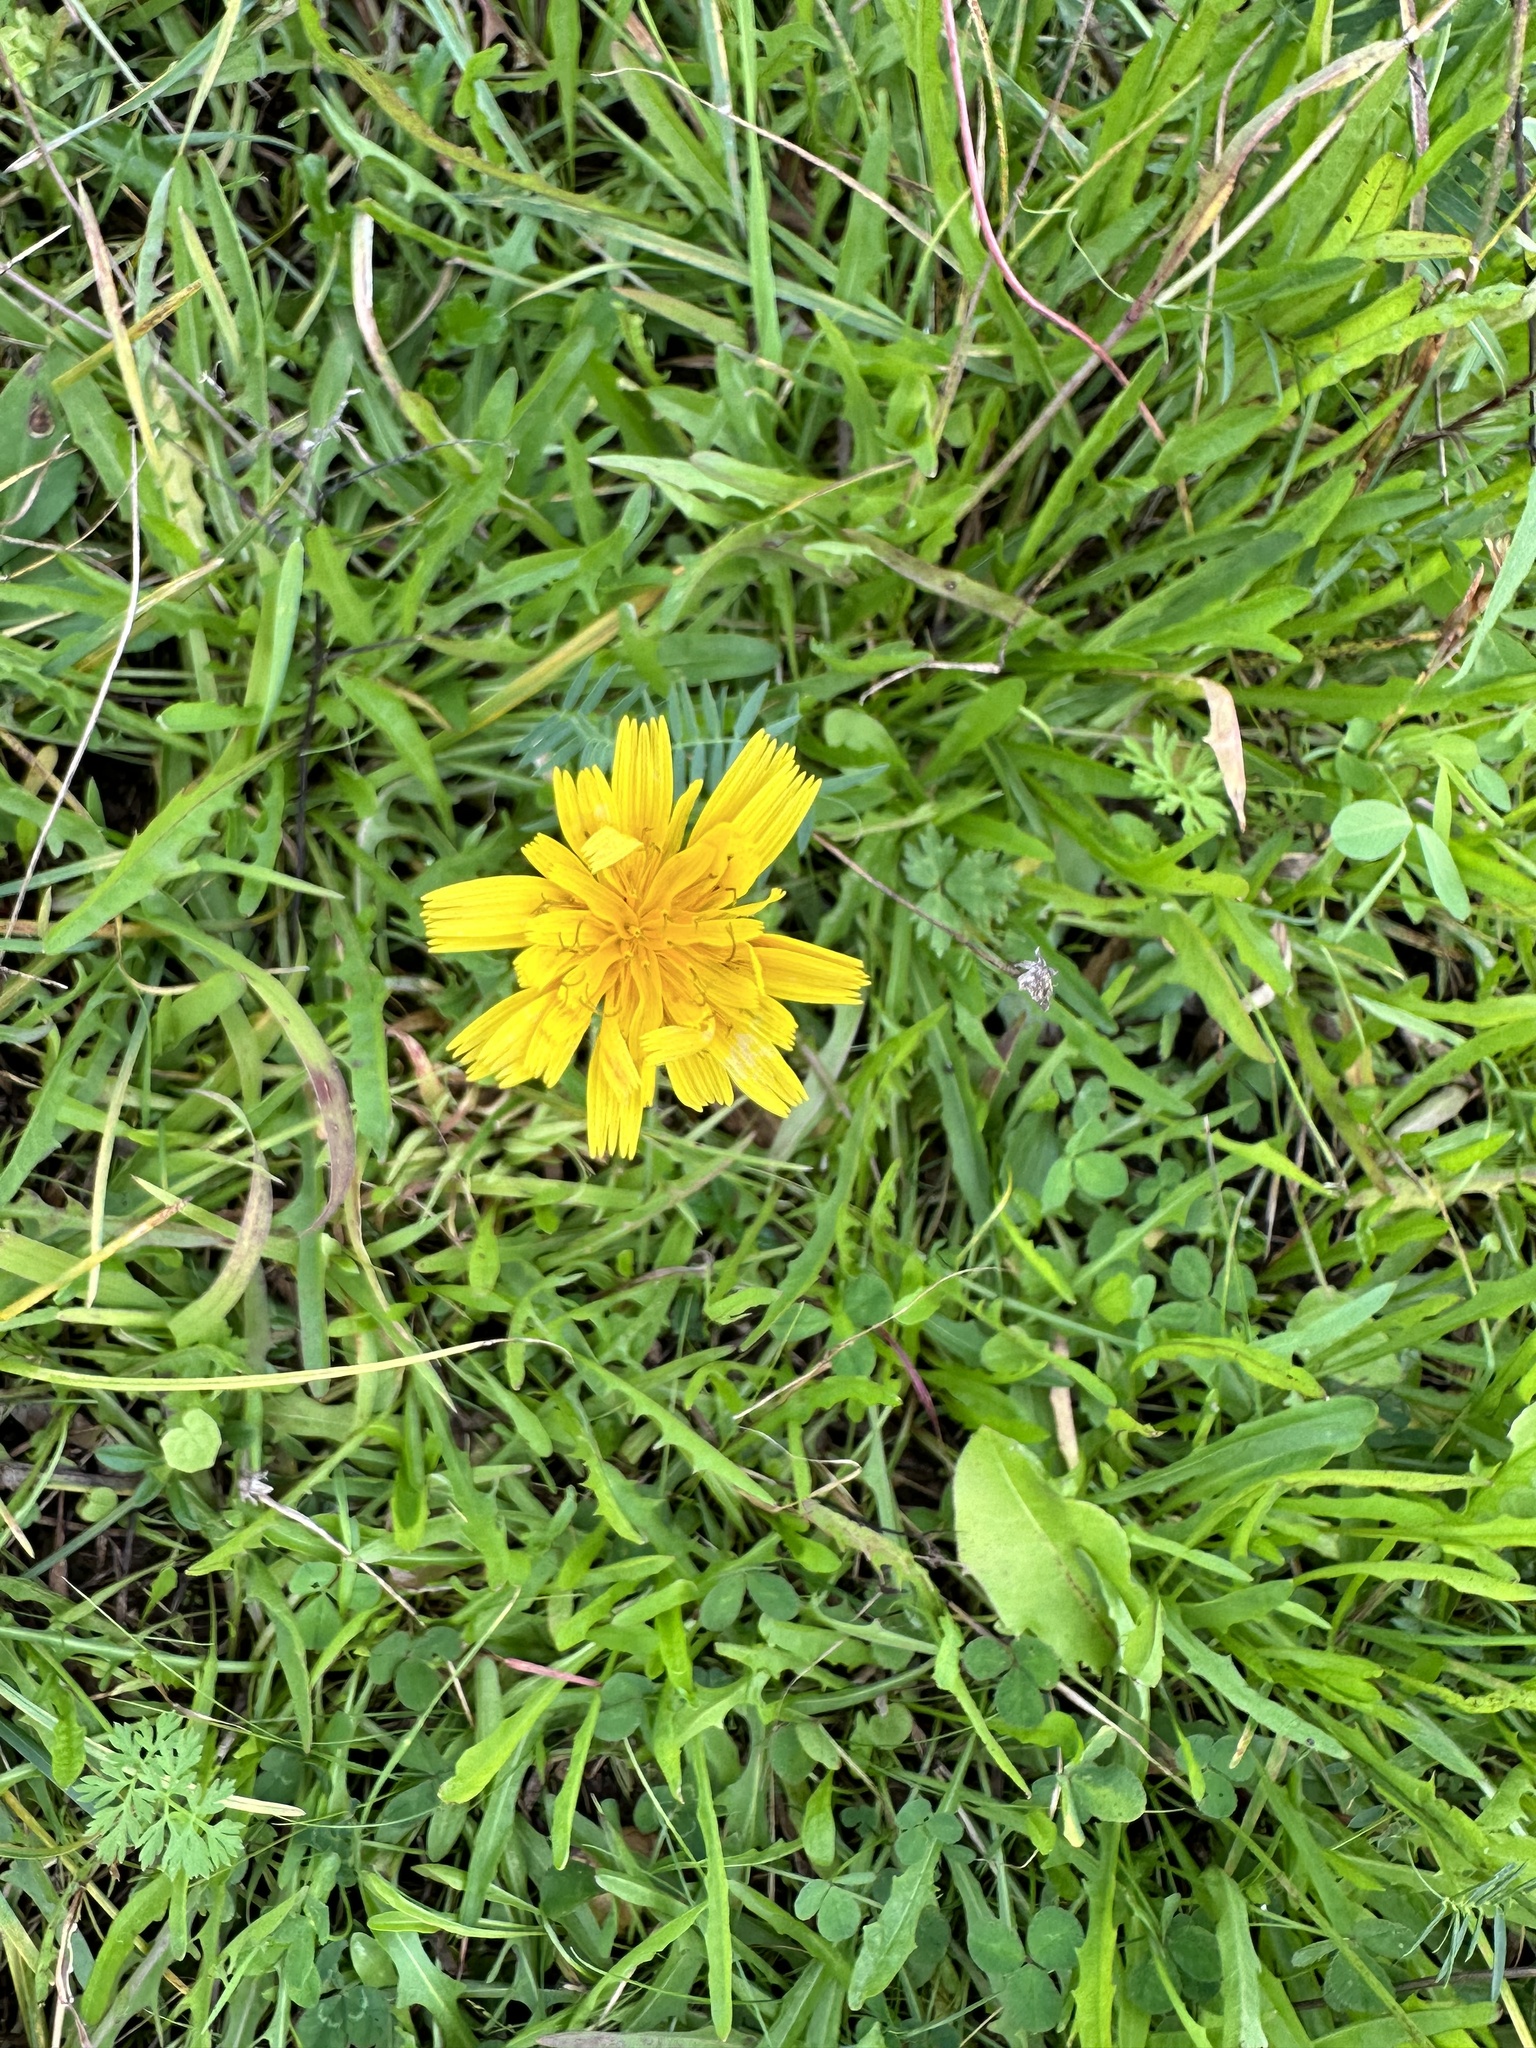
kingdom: Plantae
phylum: Tracheophyta
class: Magnoliopsida
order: Asterales
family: Asteraceae
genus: Scorzoneroides
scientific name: Scorzoneroides autumnalis
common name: Autumn hawkbit
